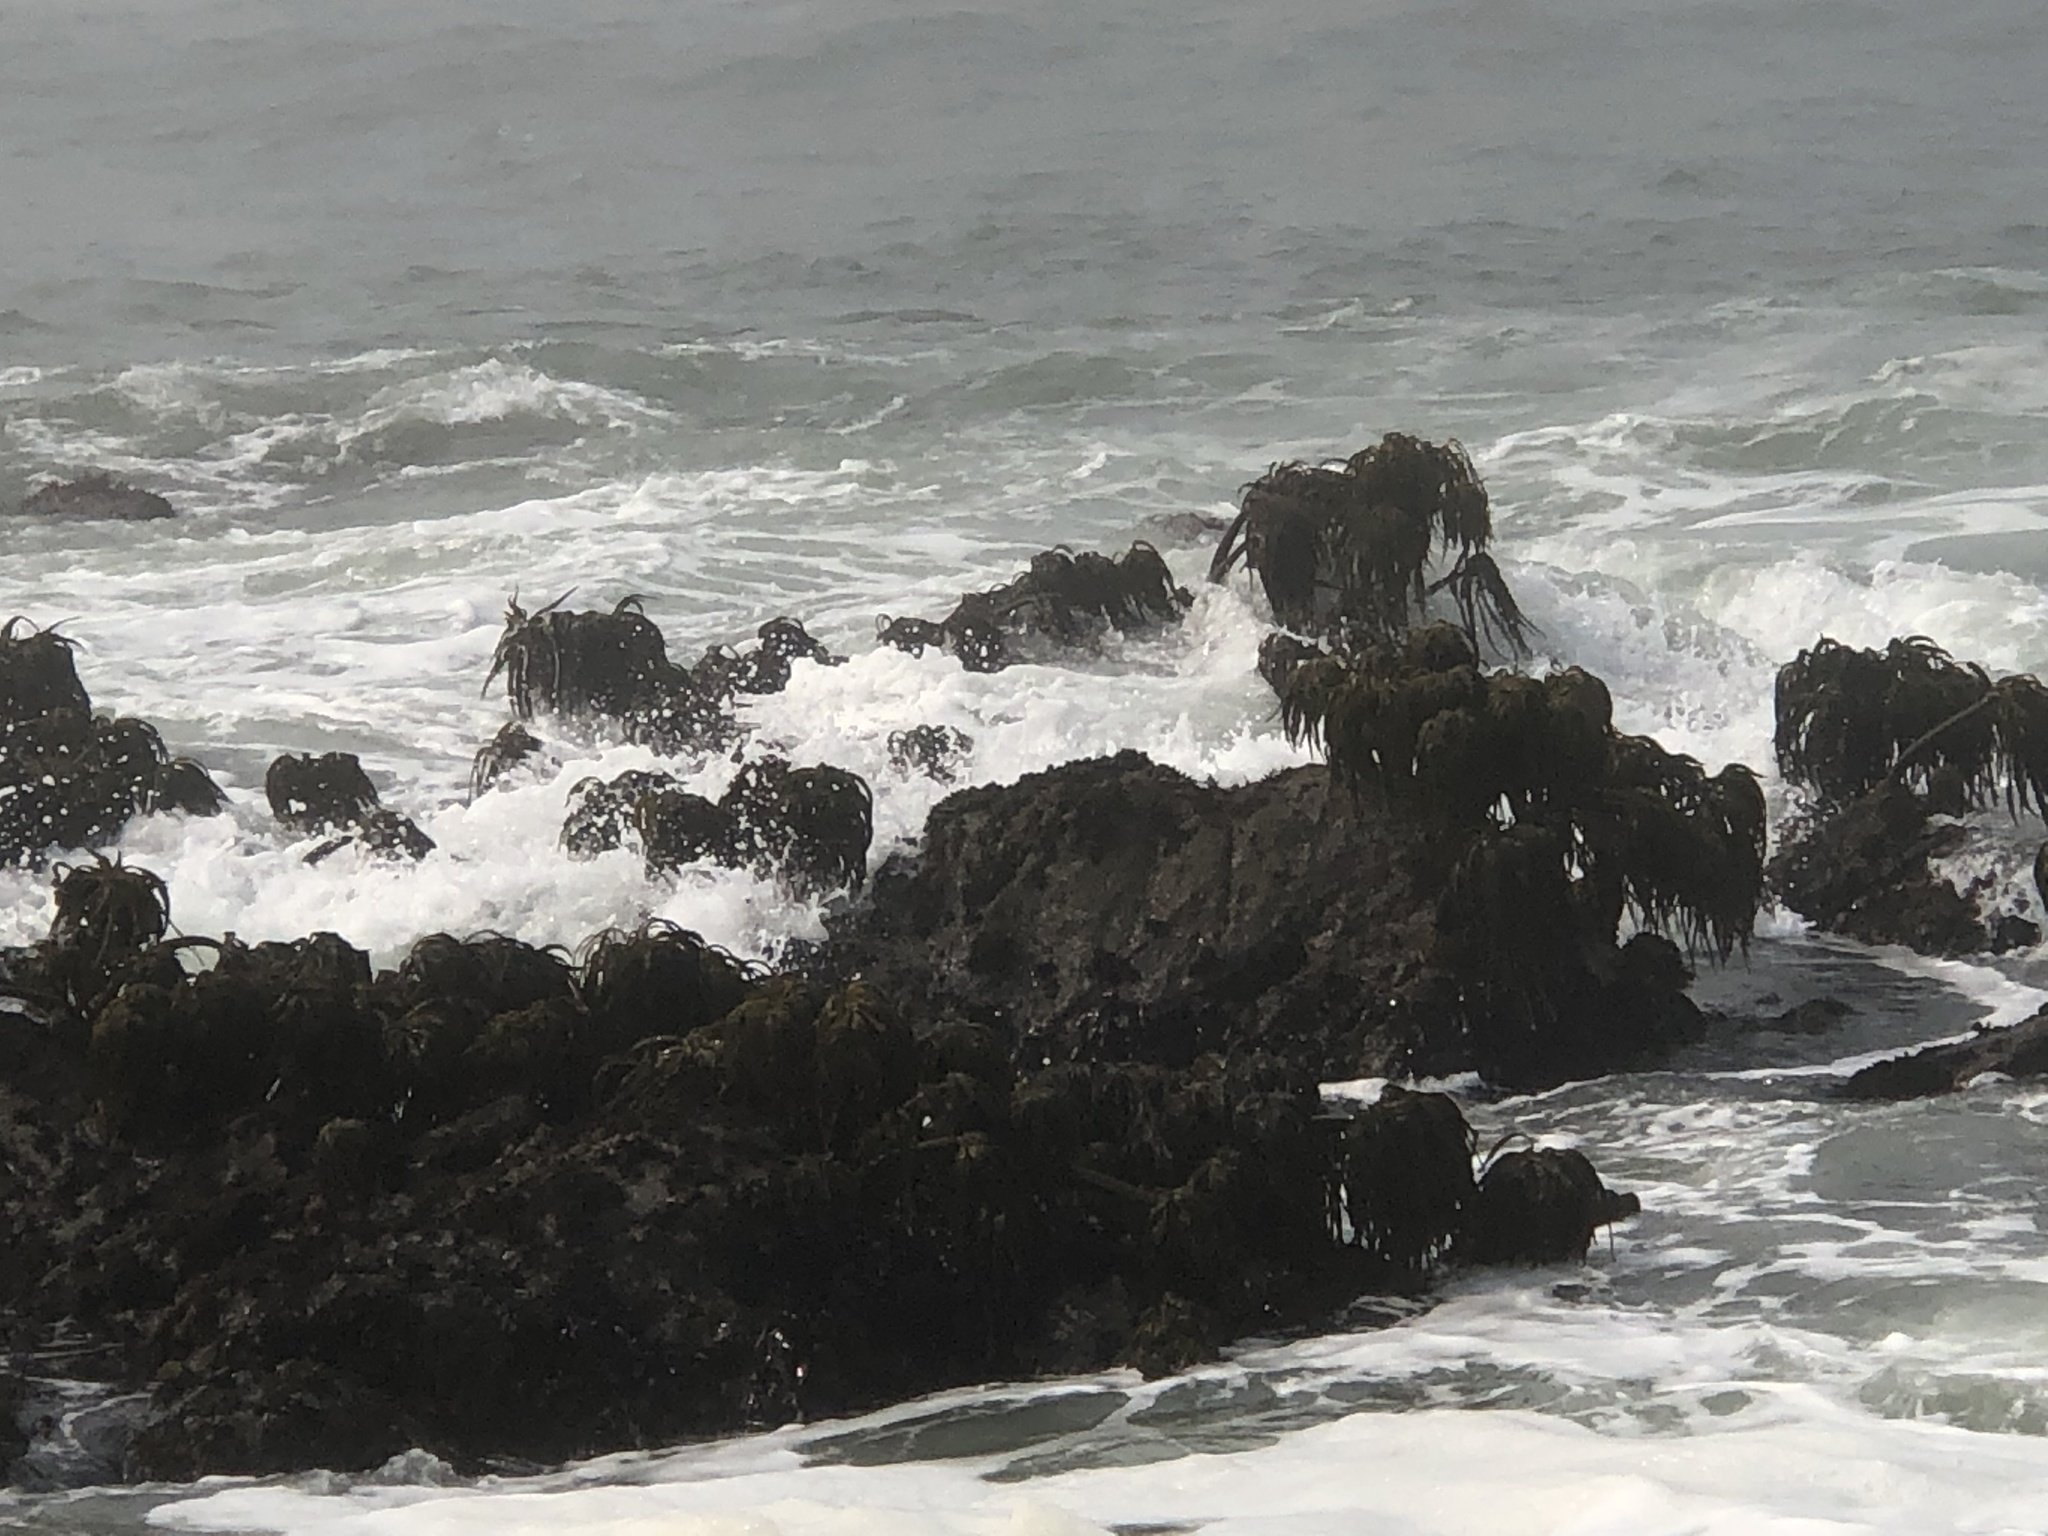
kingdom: Chromista
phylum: Ochrophyta
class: Phaeophyceae
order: Laminariales
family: Laminariaceae
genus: Postelsia
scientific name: Postelsia palmiformis
